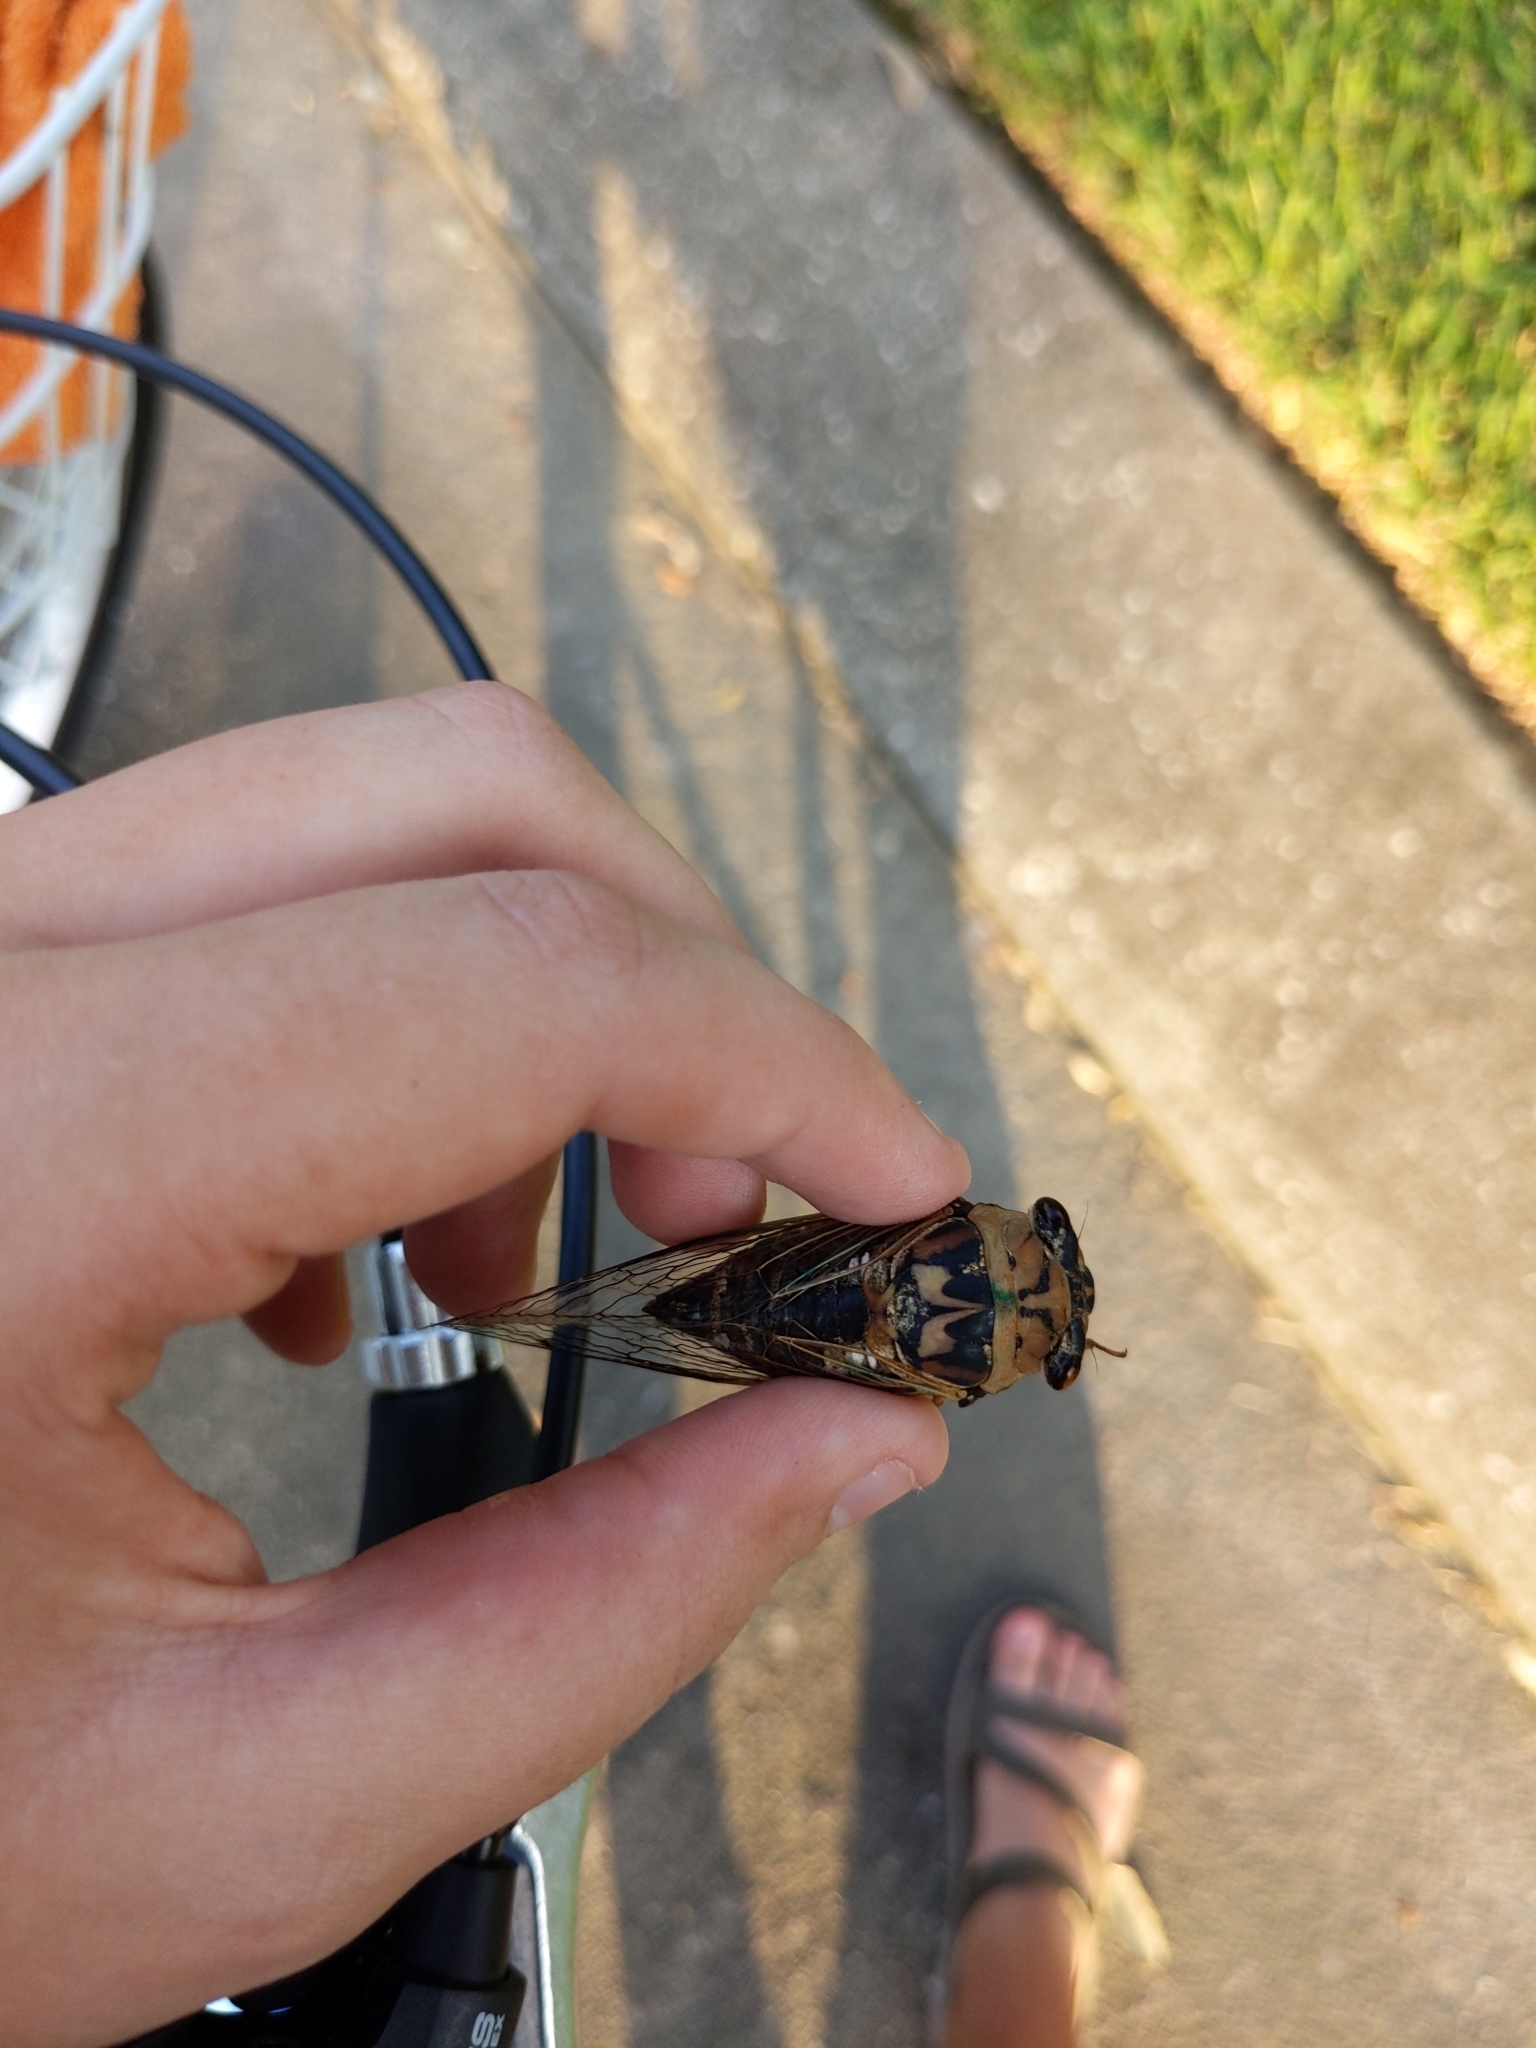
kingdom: Animalia
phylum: Arthropoda
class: Insecta
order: Hemiptera
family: Cicadidae
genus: Megatibicen
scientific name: Megatibicen resh
